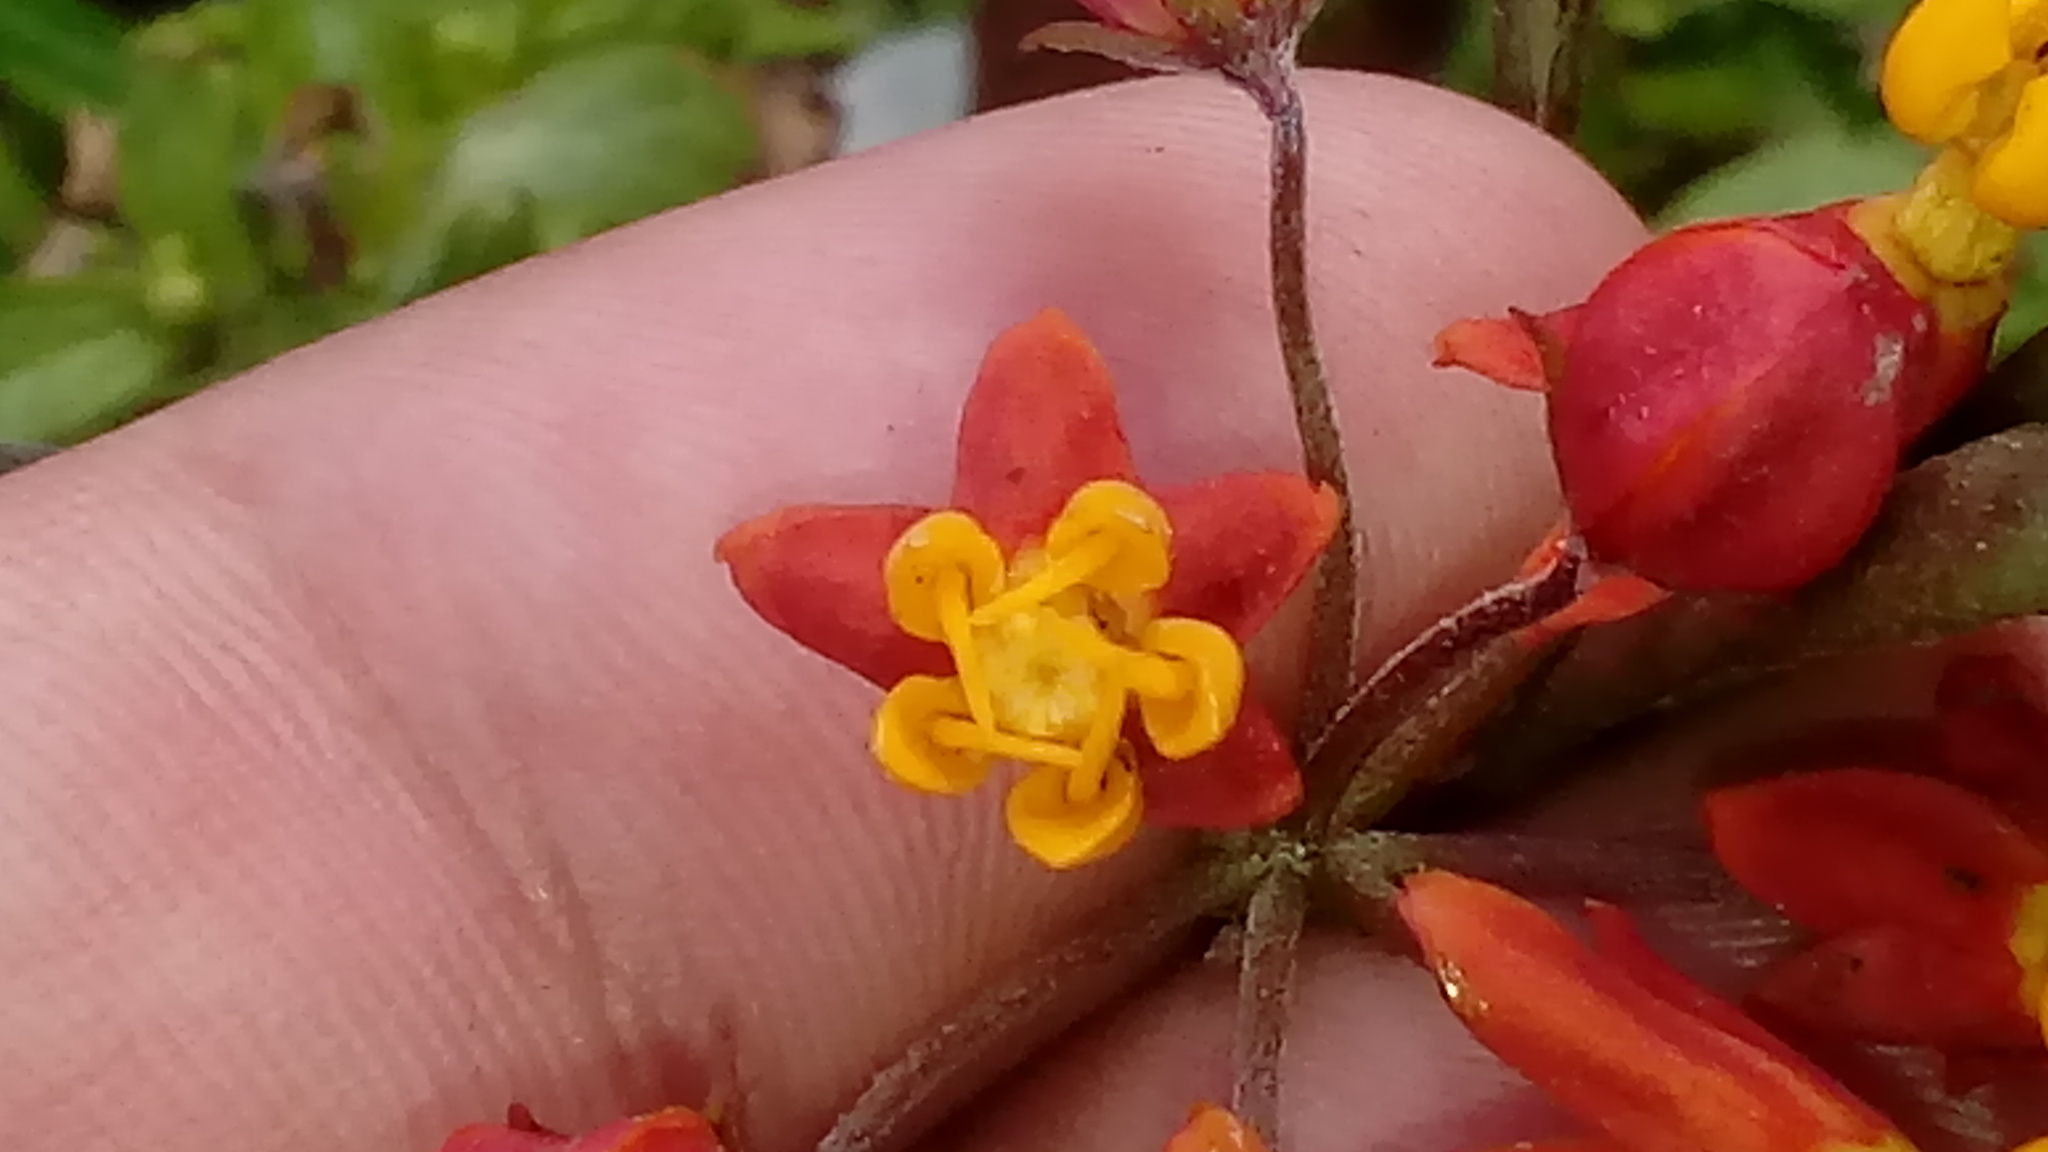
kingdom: Plantae
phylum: Tracheophyta
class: Magnoliopsida
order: Gentianales
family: Apocynaceae
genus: Asclepias
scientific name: Asclepias curassavica
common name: Bloodflower
